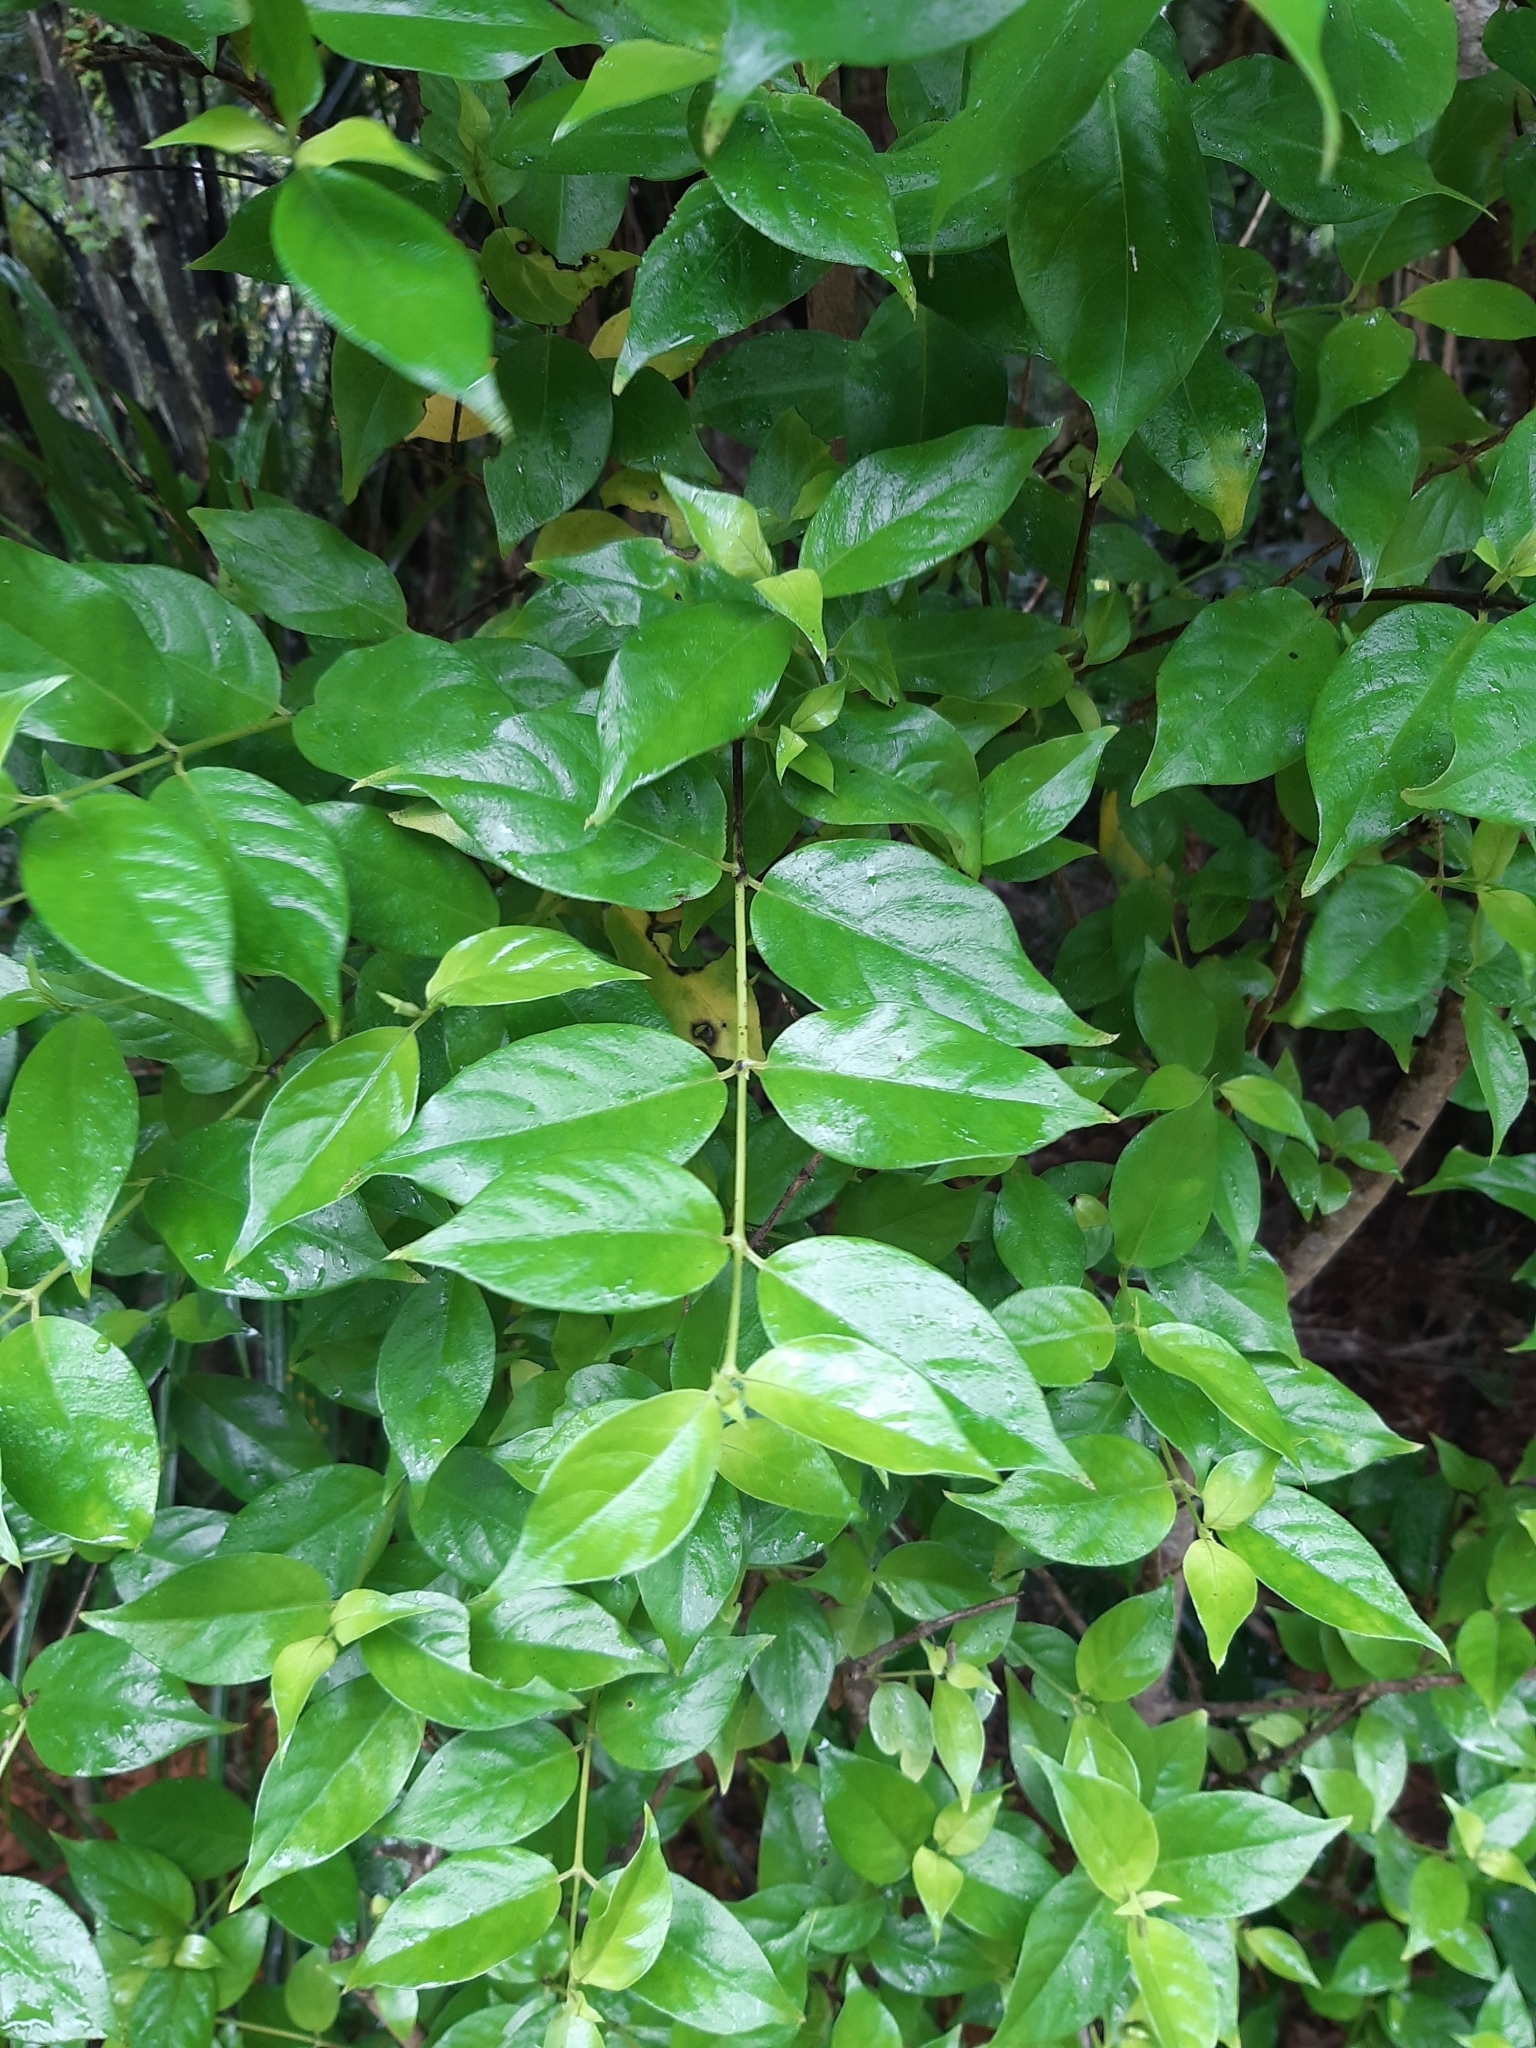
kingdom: Plantae
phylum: Tracheophyta
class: Magnoliopsida
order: Gentianales
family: Loganiaceae
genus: Geniostoma
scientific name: Geniostoma ligustrifolium
